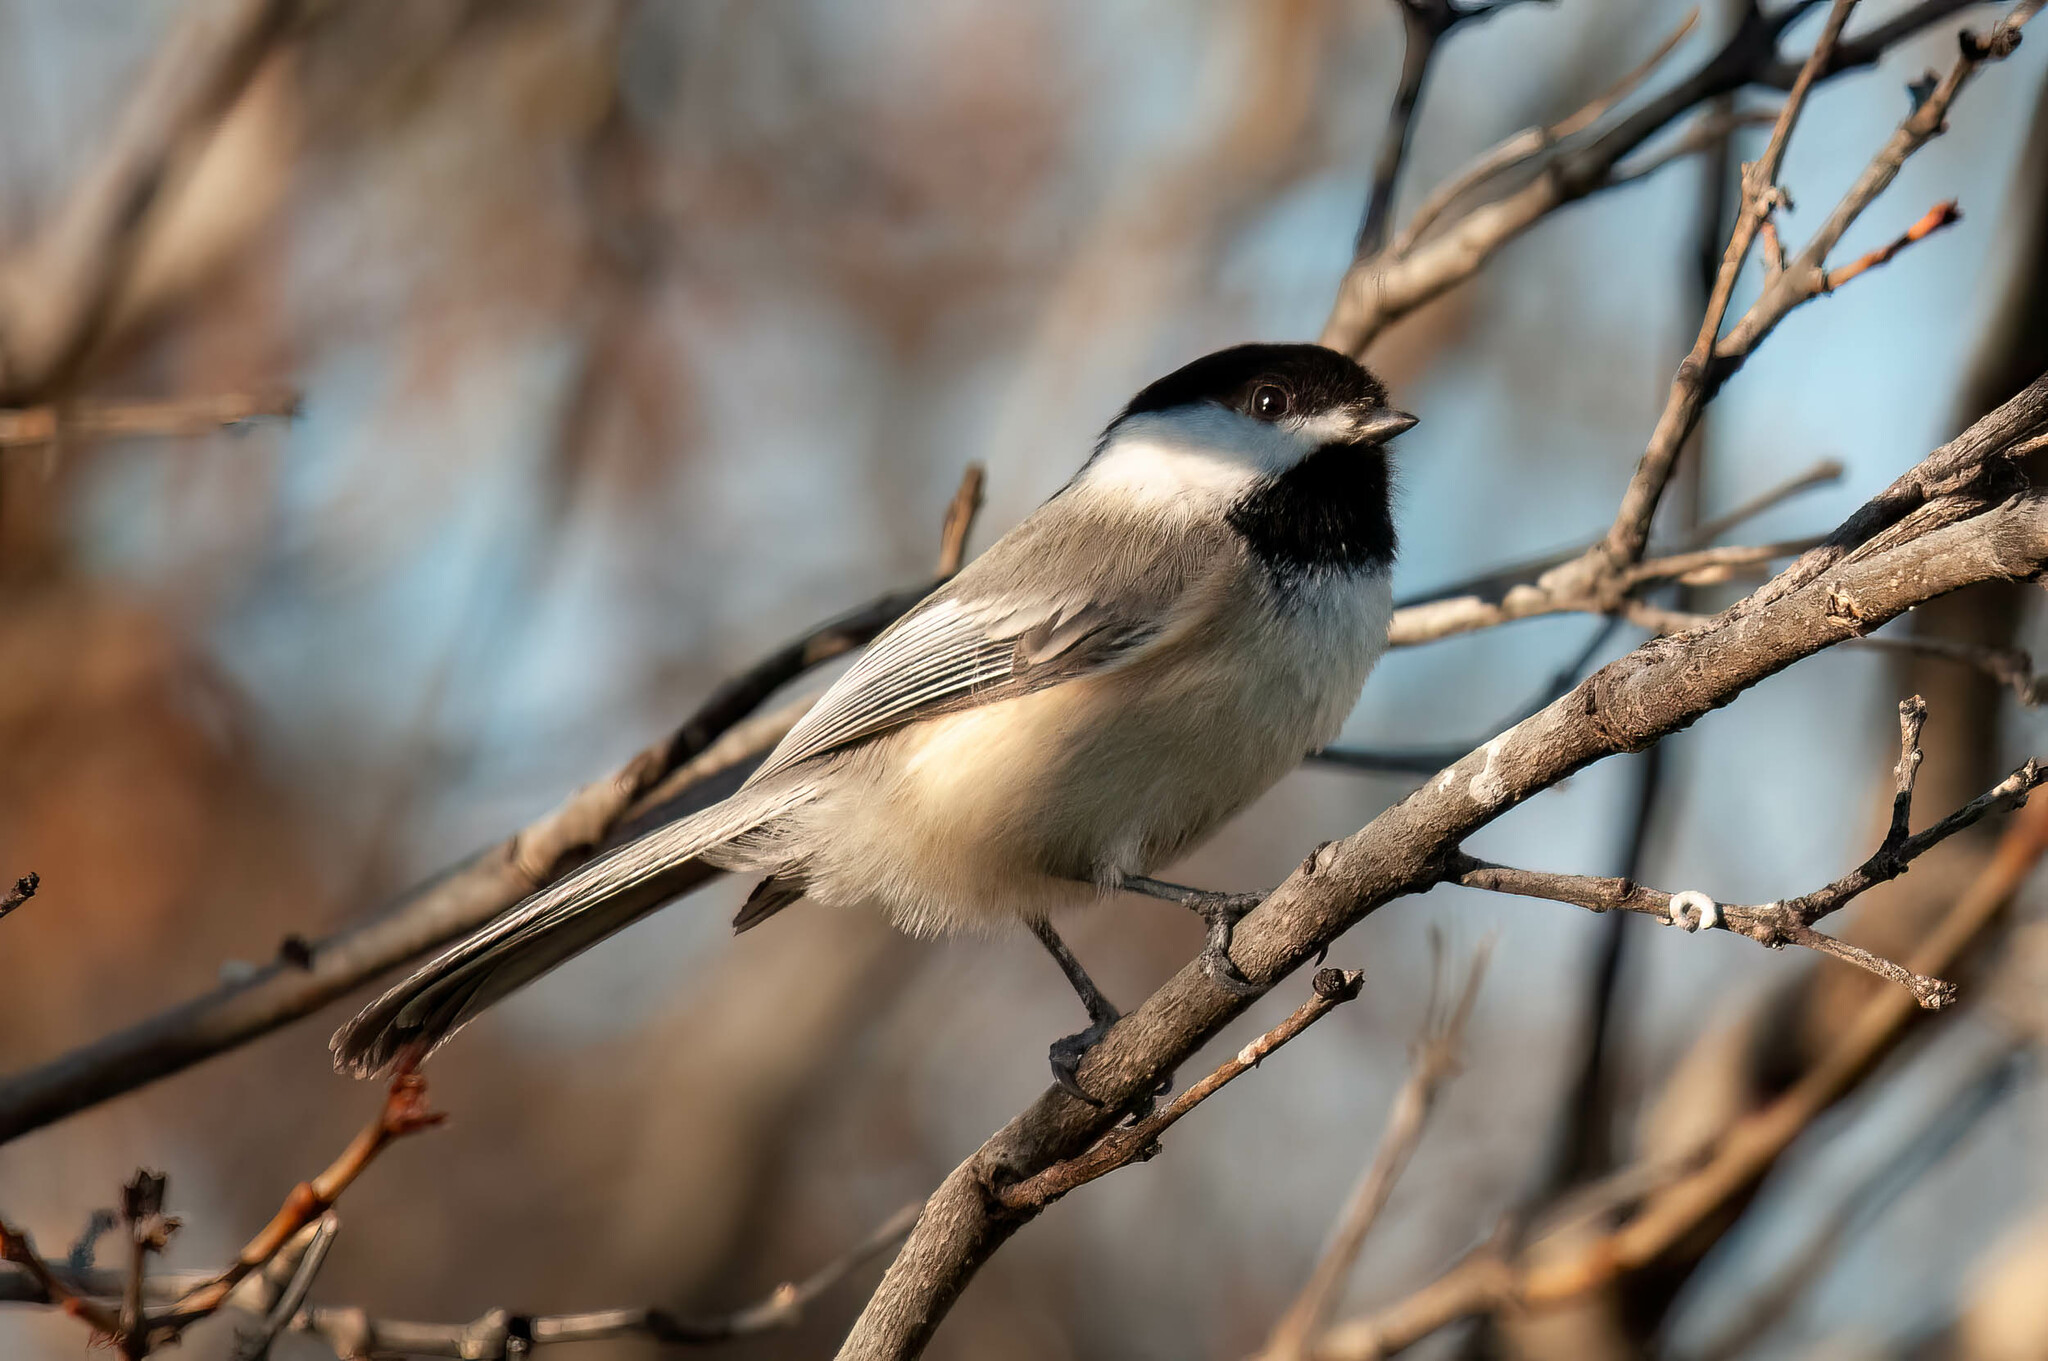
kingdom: Animalia
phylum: Chordata
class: Aves
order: Passeriformes
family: Paridae
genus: Poecile
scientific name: Poecile atricapillus
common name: Black-capped chickadee
